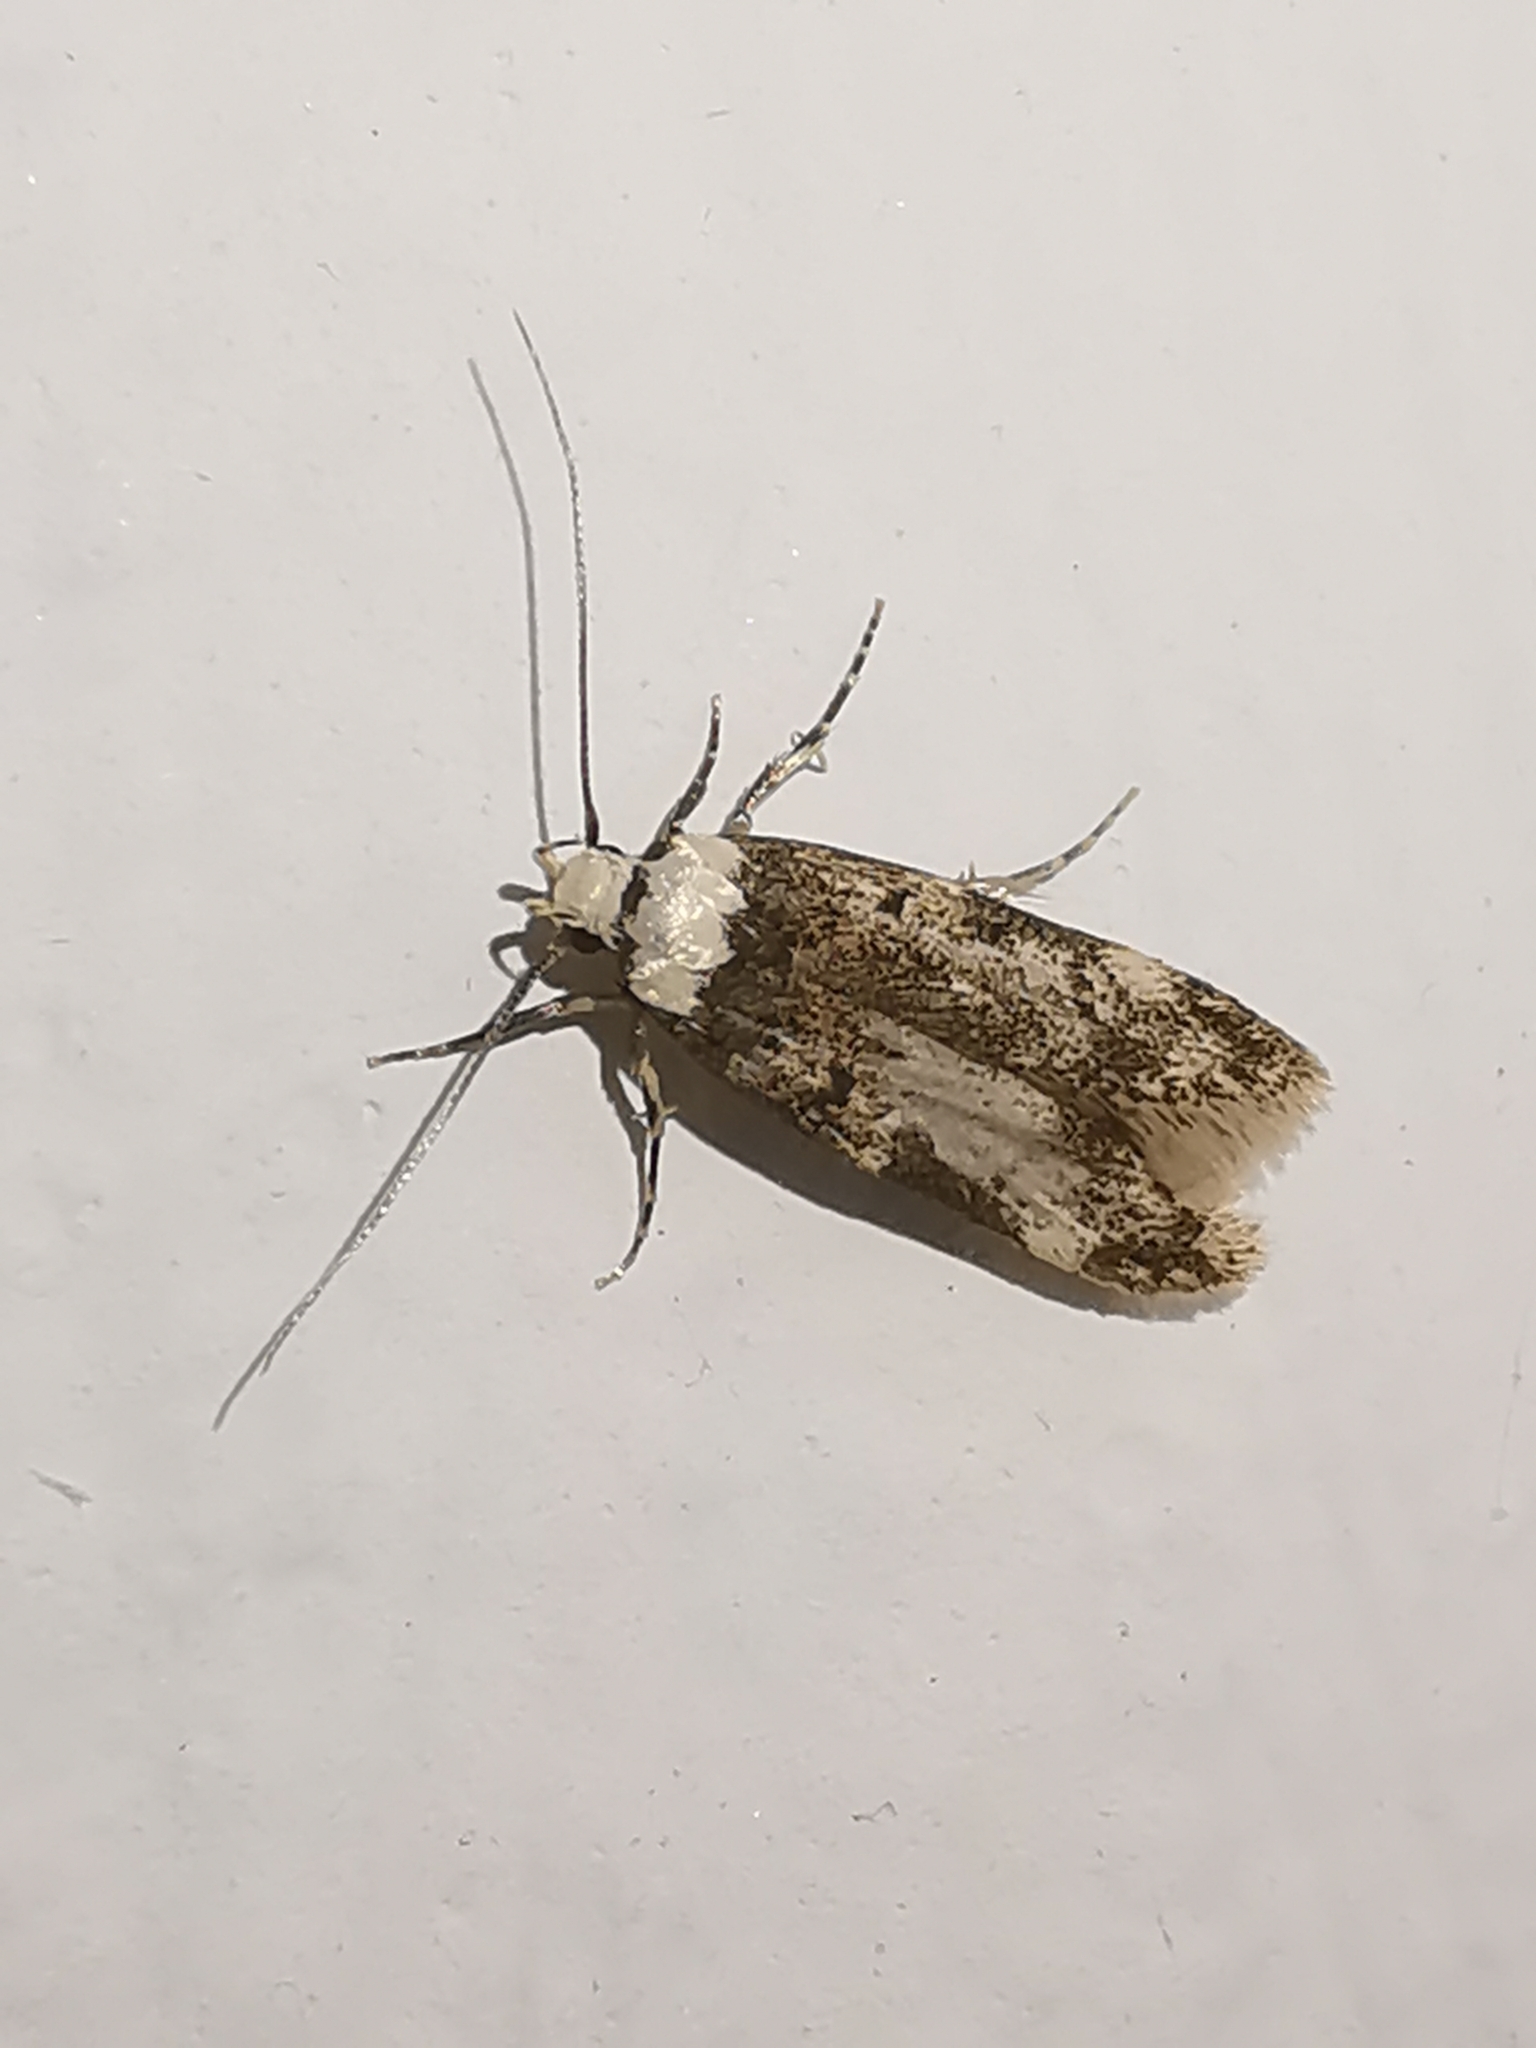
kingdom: Animalia
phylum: Arthropoda
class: Insecta
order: Lepidoptera
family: Oecophoridae
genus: Endrosis
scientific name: Endrosis sarcitrella
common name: White-shouldered house moth
